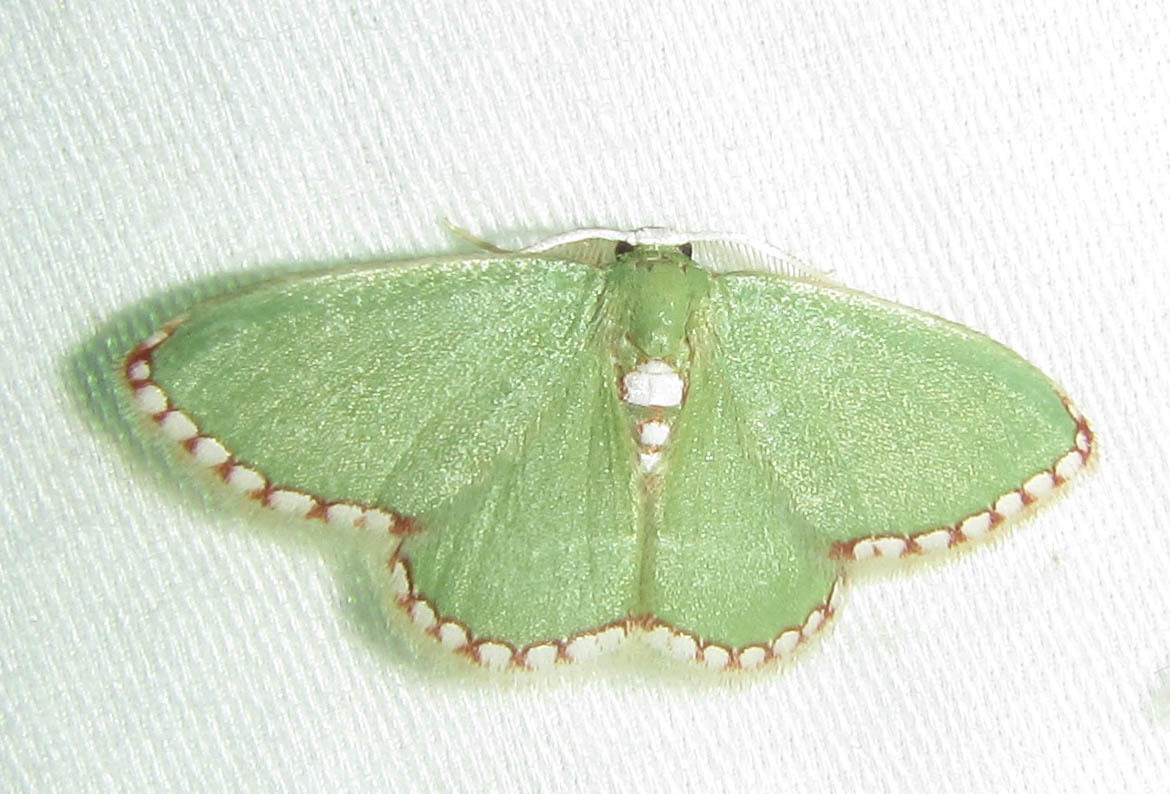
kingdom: Animalia
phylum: Arthropoda
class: Insecta
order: Lepidoptera
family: Geometridae
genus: Allochrostes
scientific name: Allochrostes impunctata
